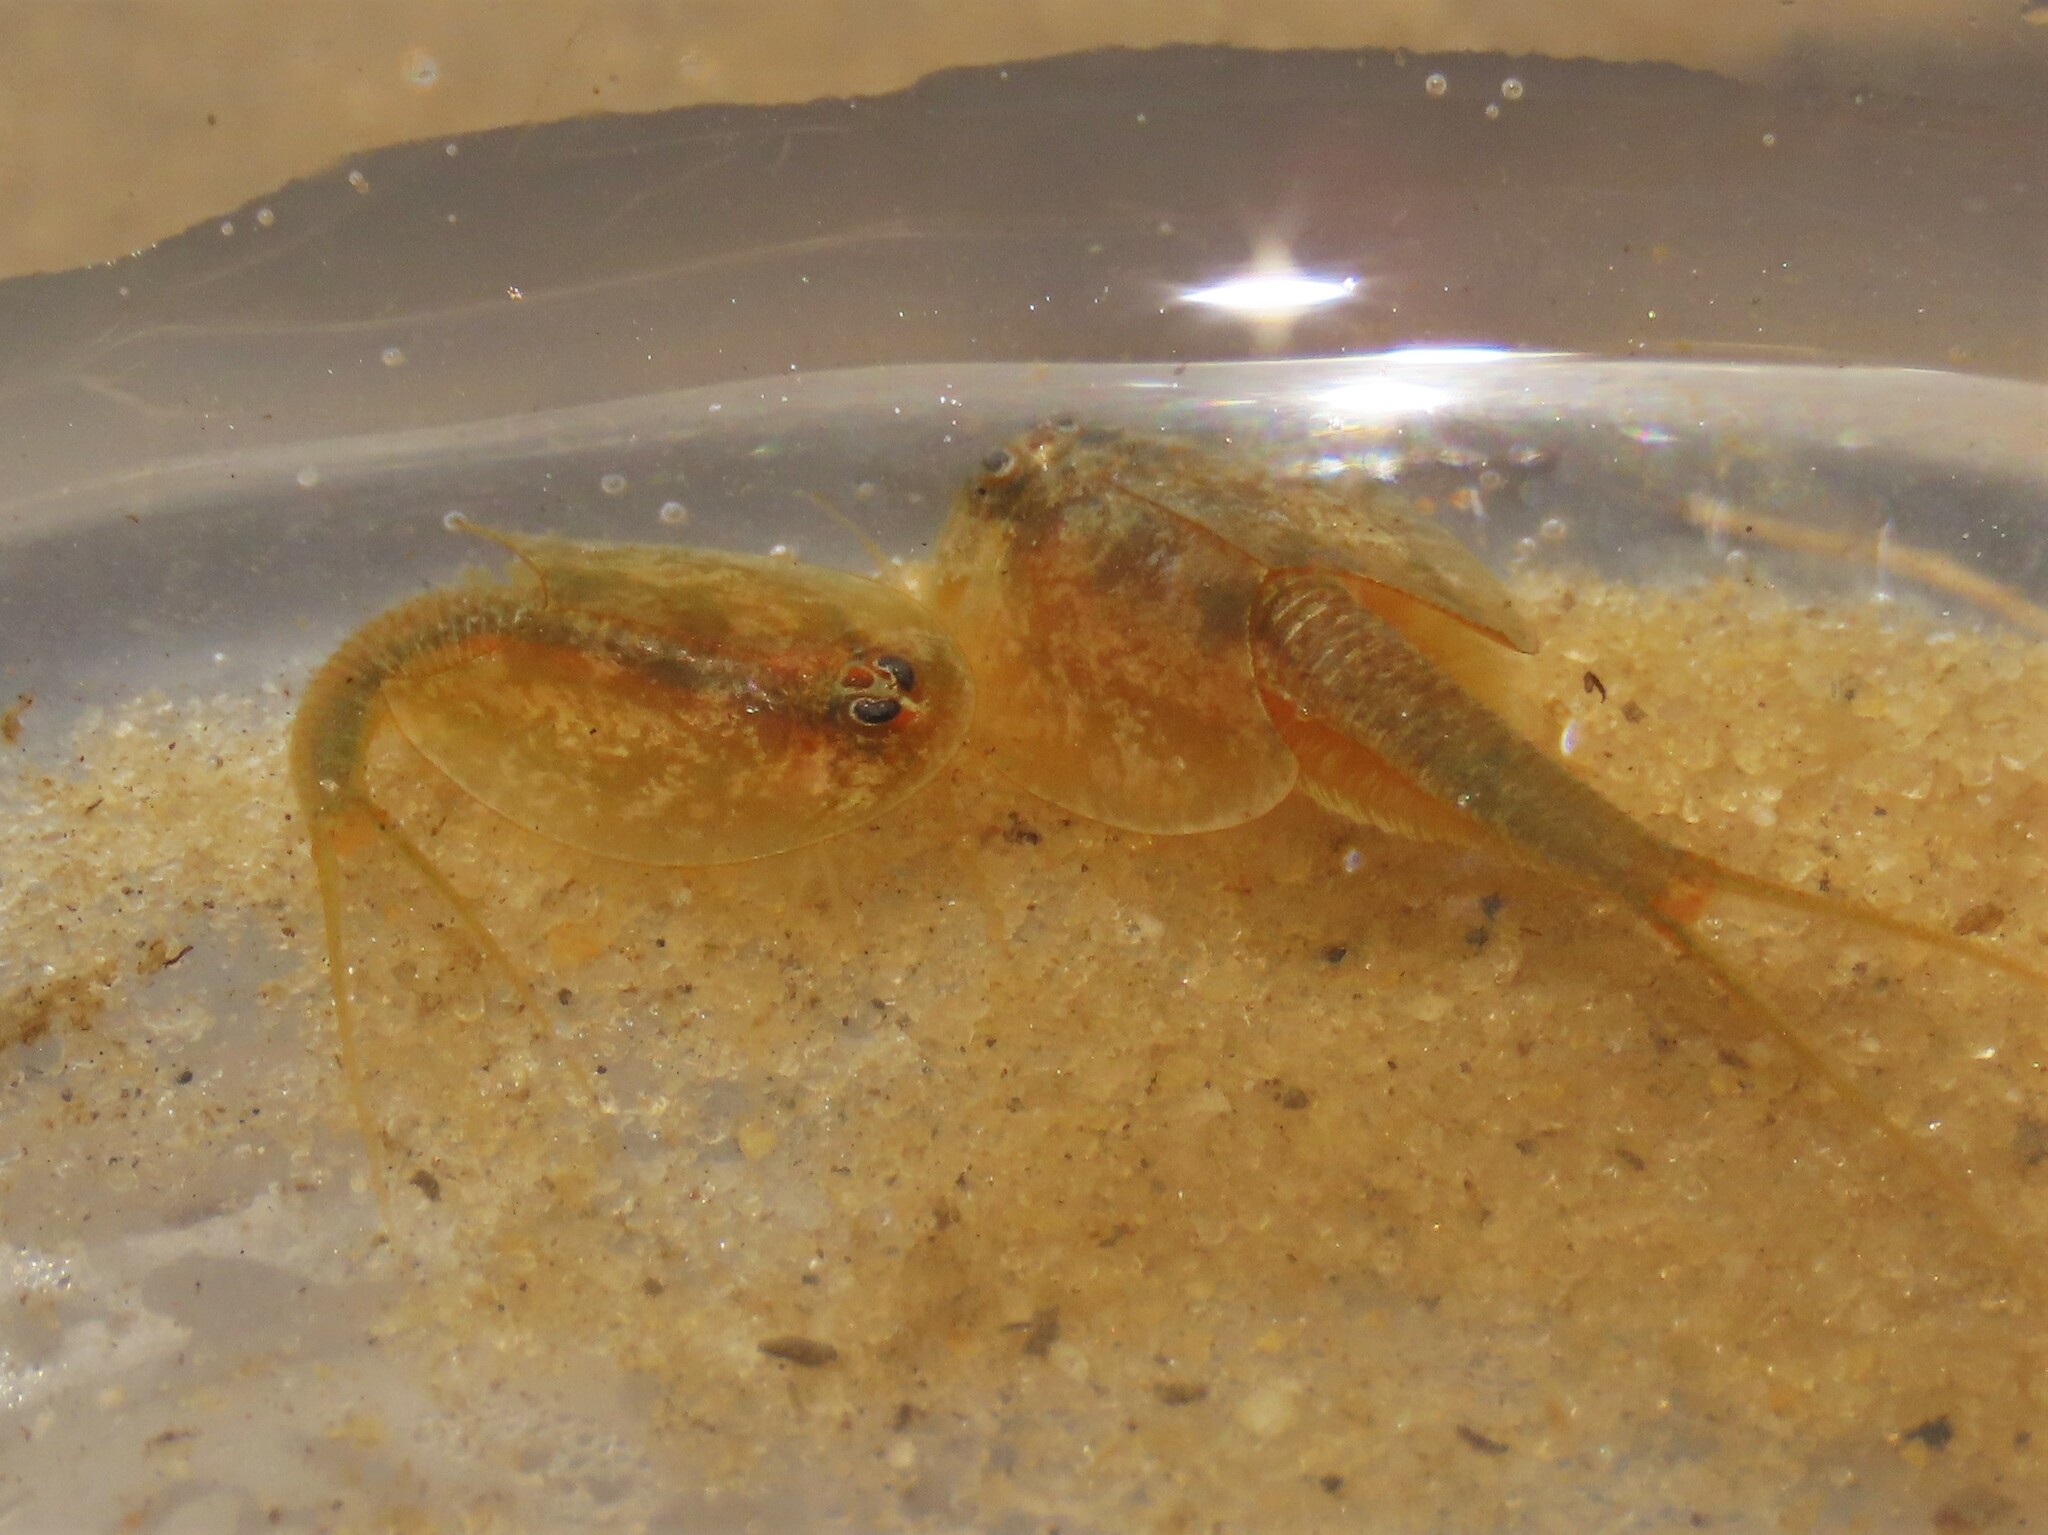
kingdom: Animalia
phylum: Arthropoda
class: Branchiopoda
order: Notostraca
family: Triopsidae
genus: Triops
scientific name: Triops
